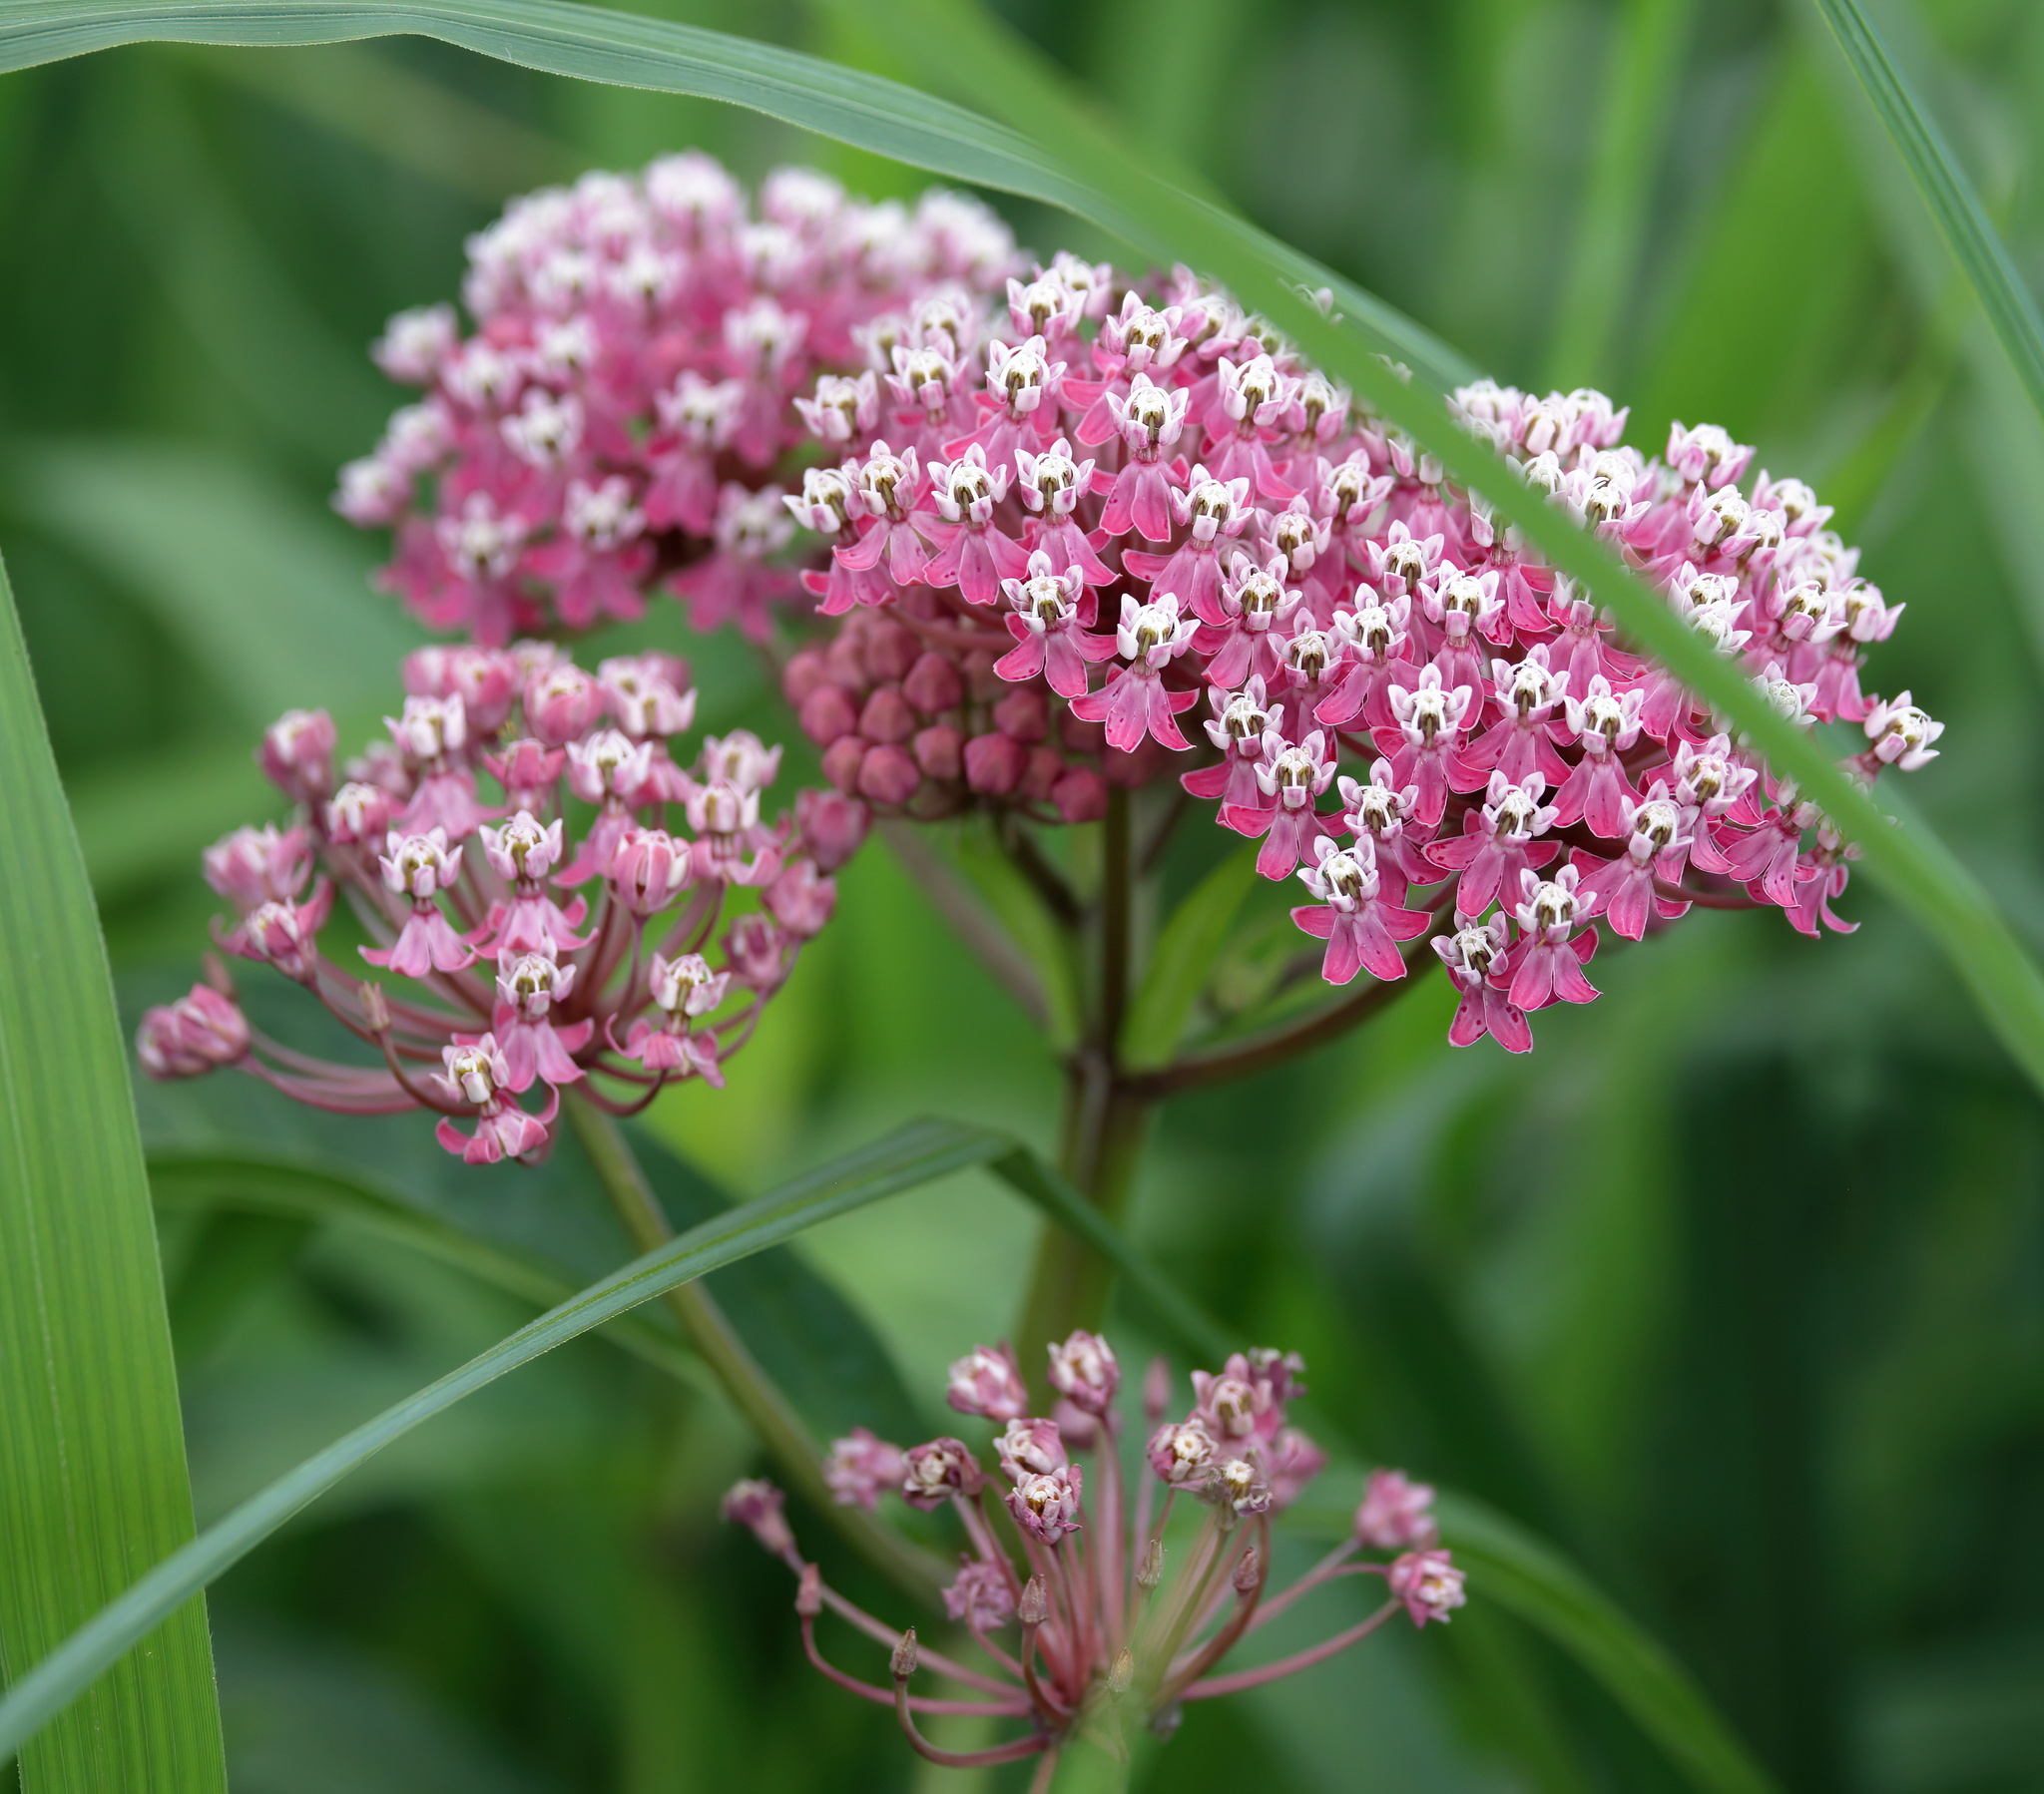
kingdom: Plantae
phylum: Tracheophyta
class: Magnoliopsida
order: Gentianales
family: Apocynaceae
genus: Asclepias
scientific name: Asclepias incarnata
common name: Swamp milkweed
